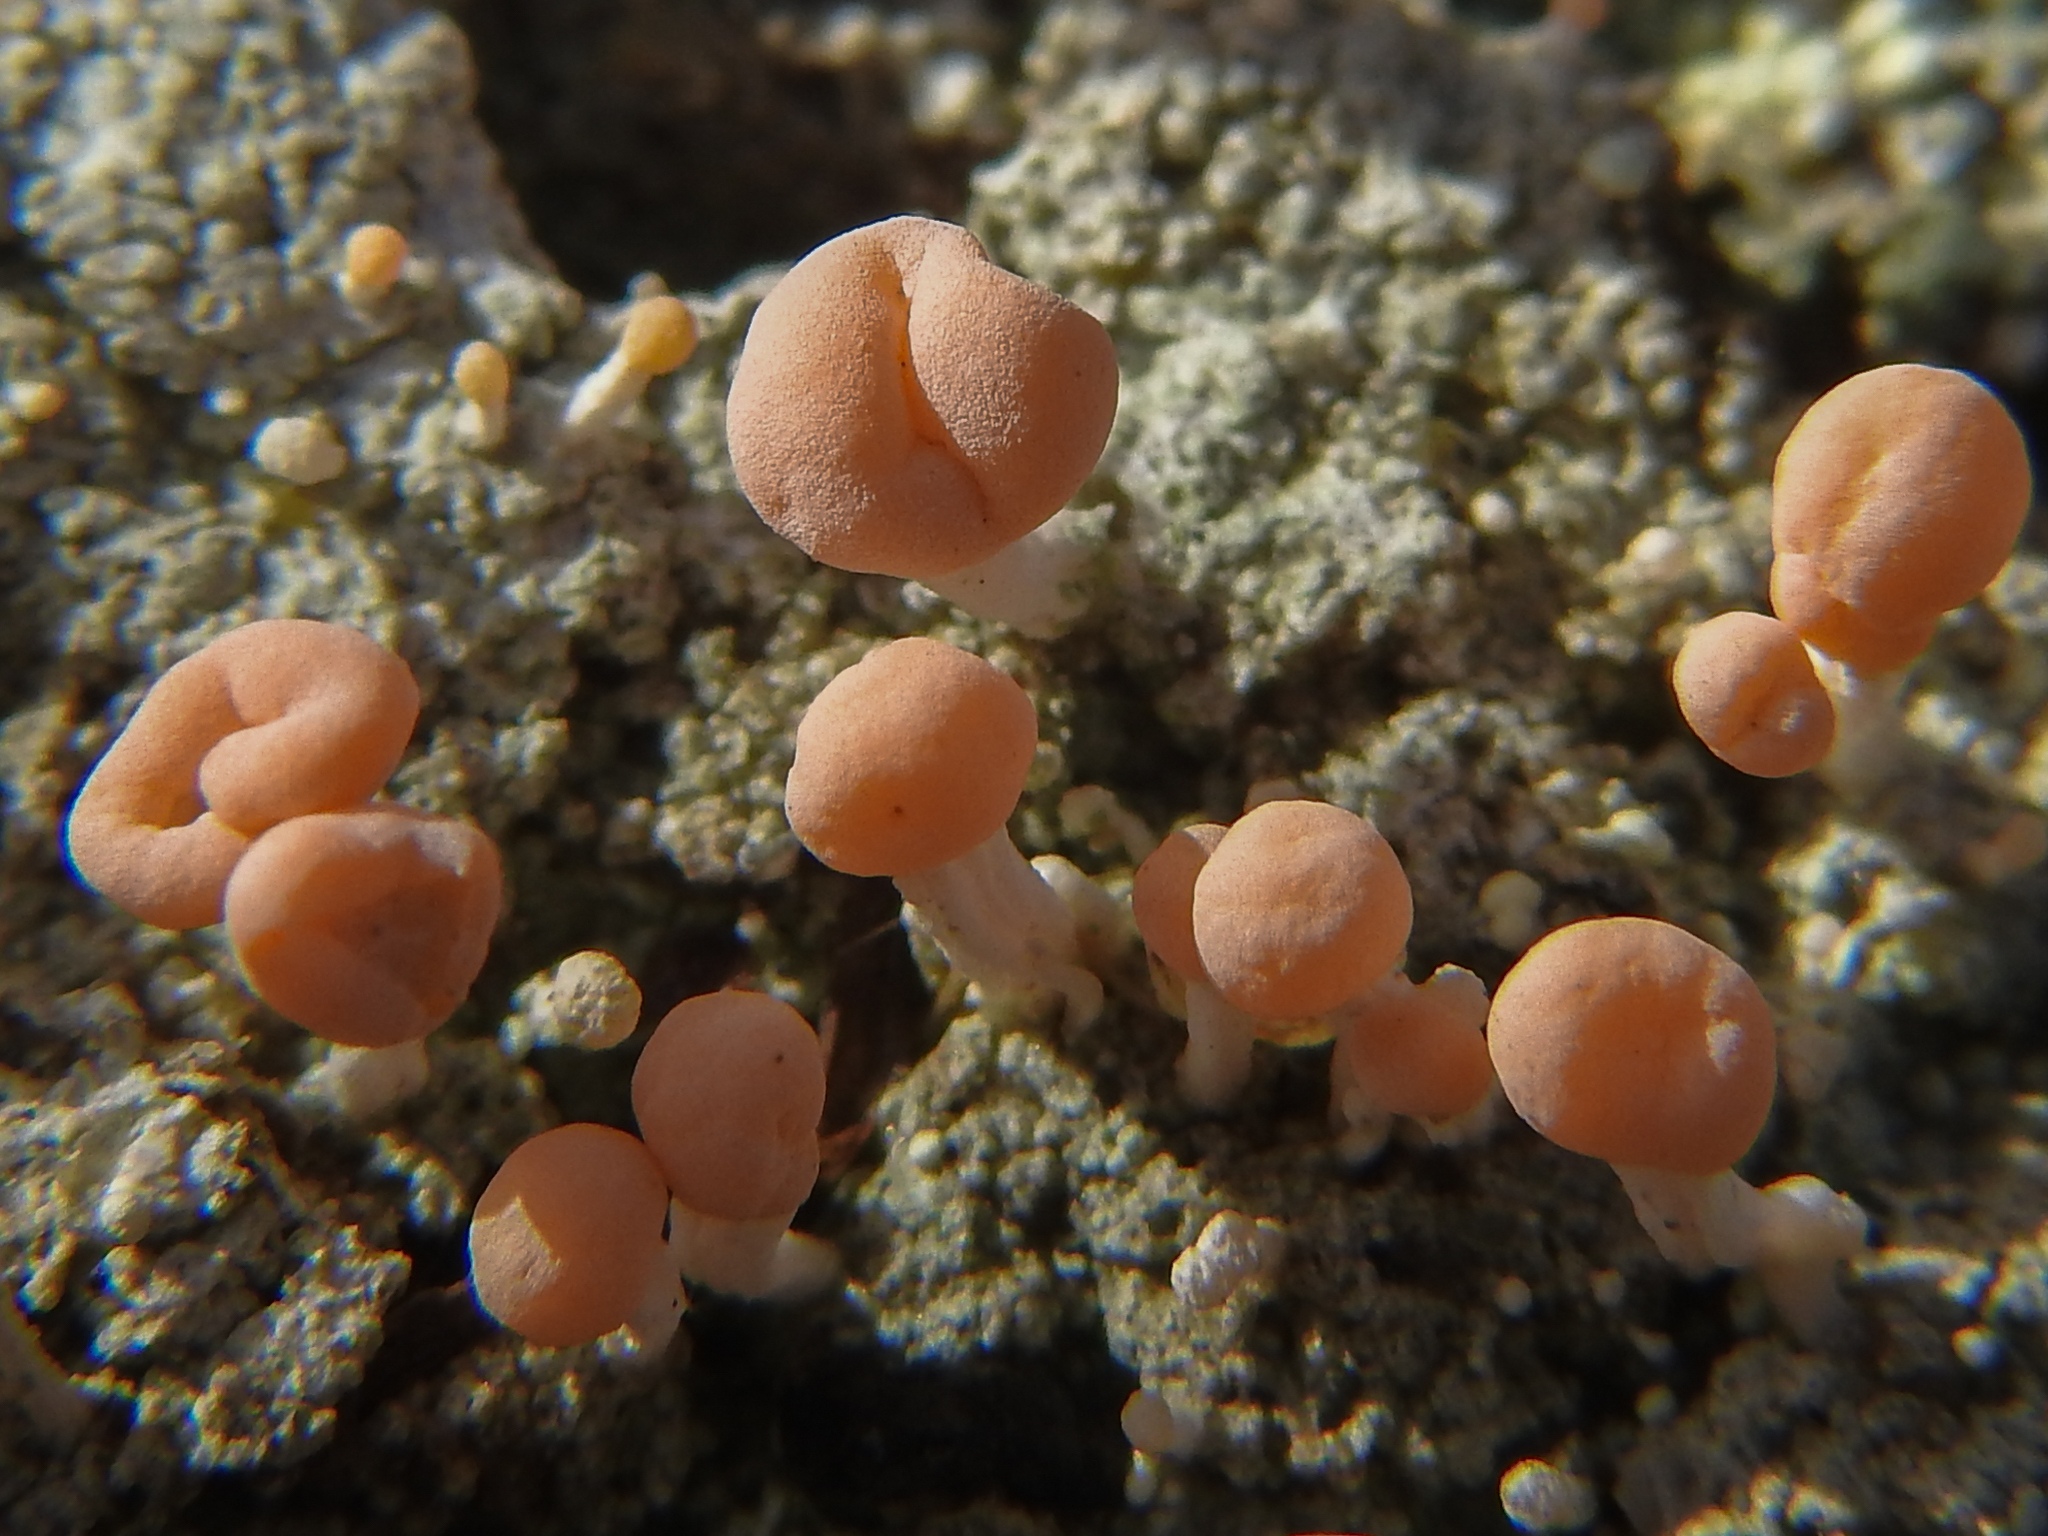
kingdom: Fungi
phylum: Ascomycota
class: Lecanoromycetes
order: Pertusariales
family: Icmadophilaceae
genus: Dibaeis
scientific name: Dibaeis baeomyces
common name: Pink earth lichen
